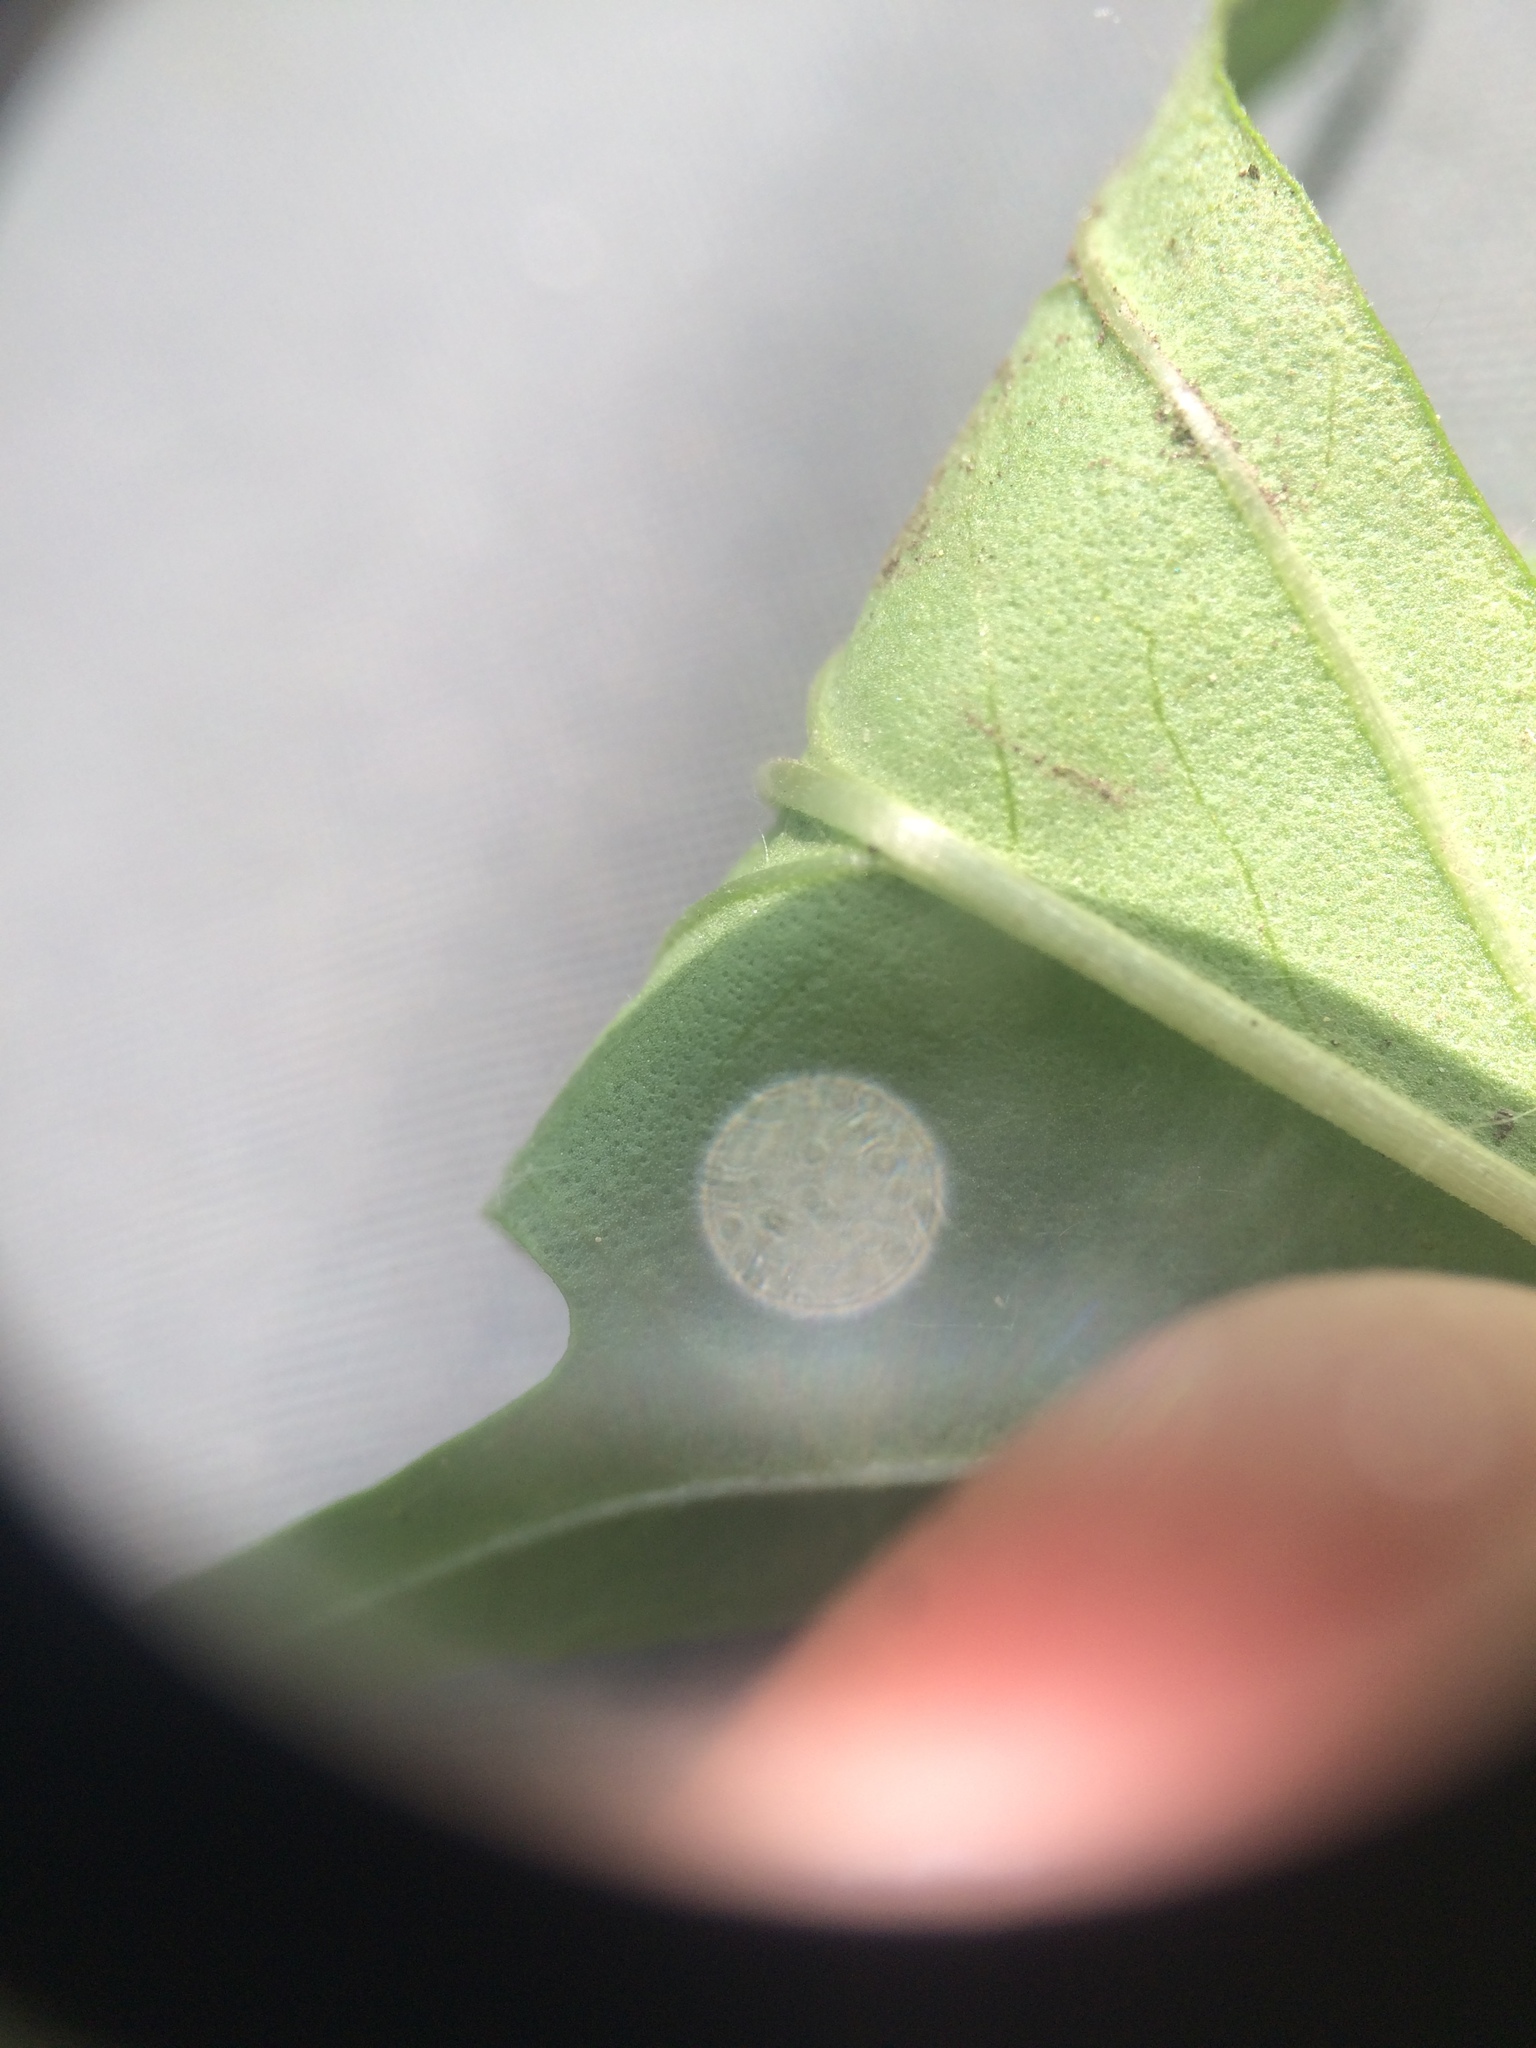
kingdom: Plantae
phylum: Tracheophyta
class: Magnoliopsida
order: Lamiales
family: Lamiaceae
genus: Lycopus
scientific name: Lycopus americanus
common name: American bugleweed
